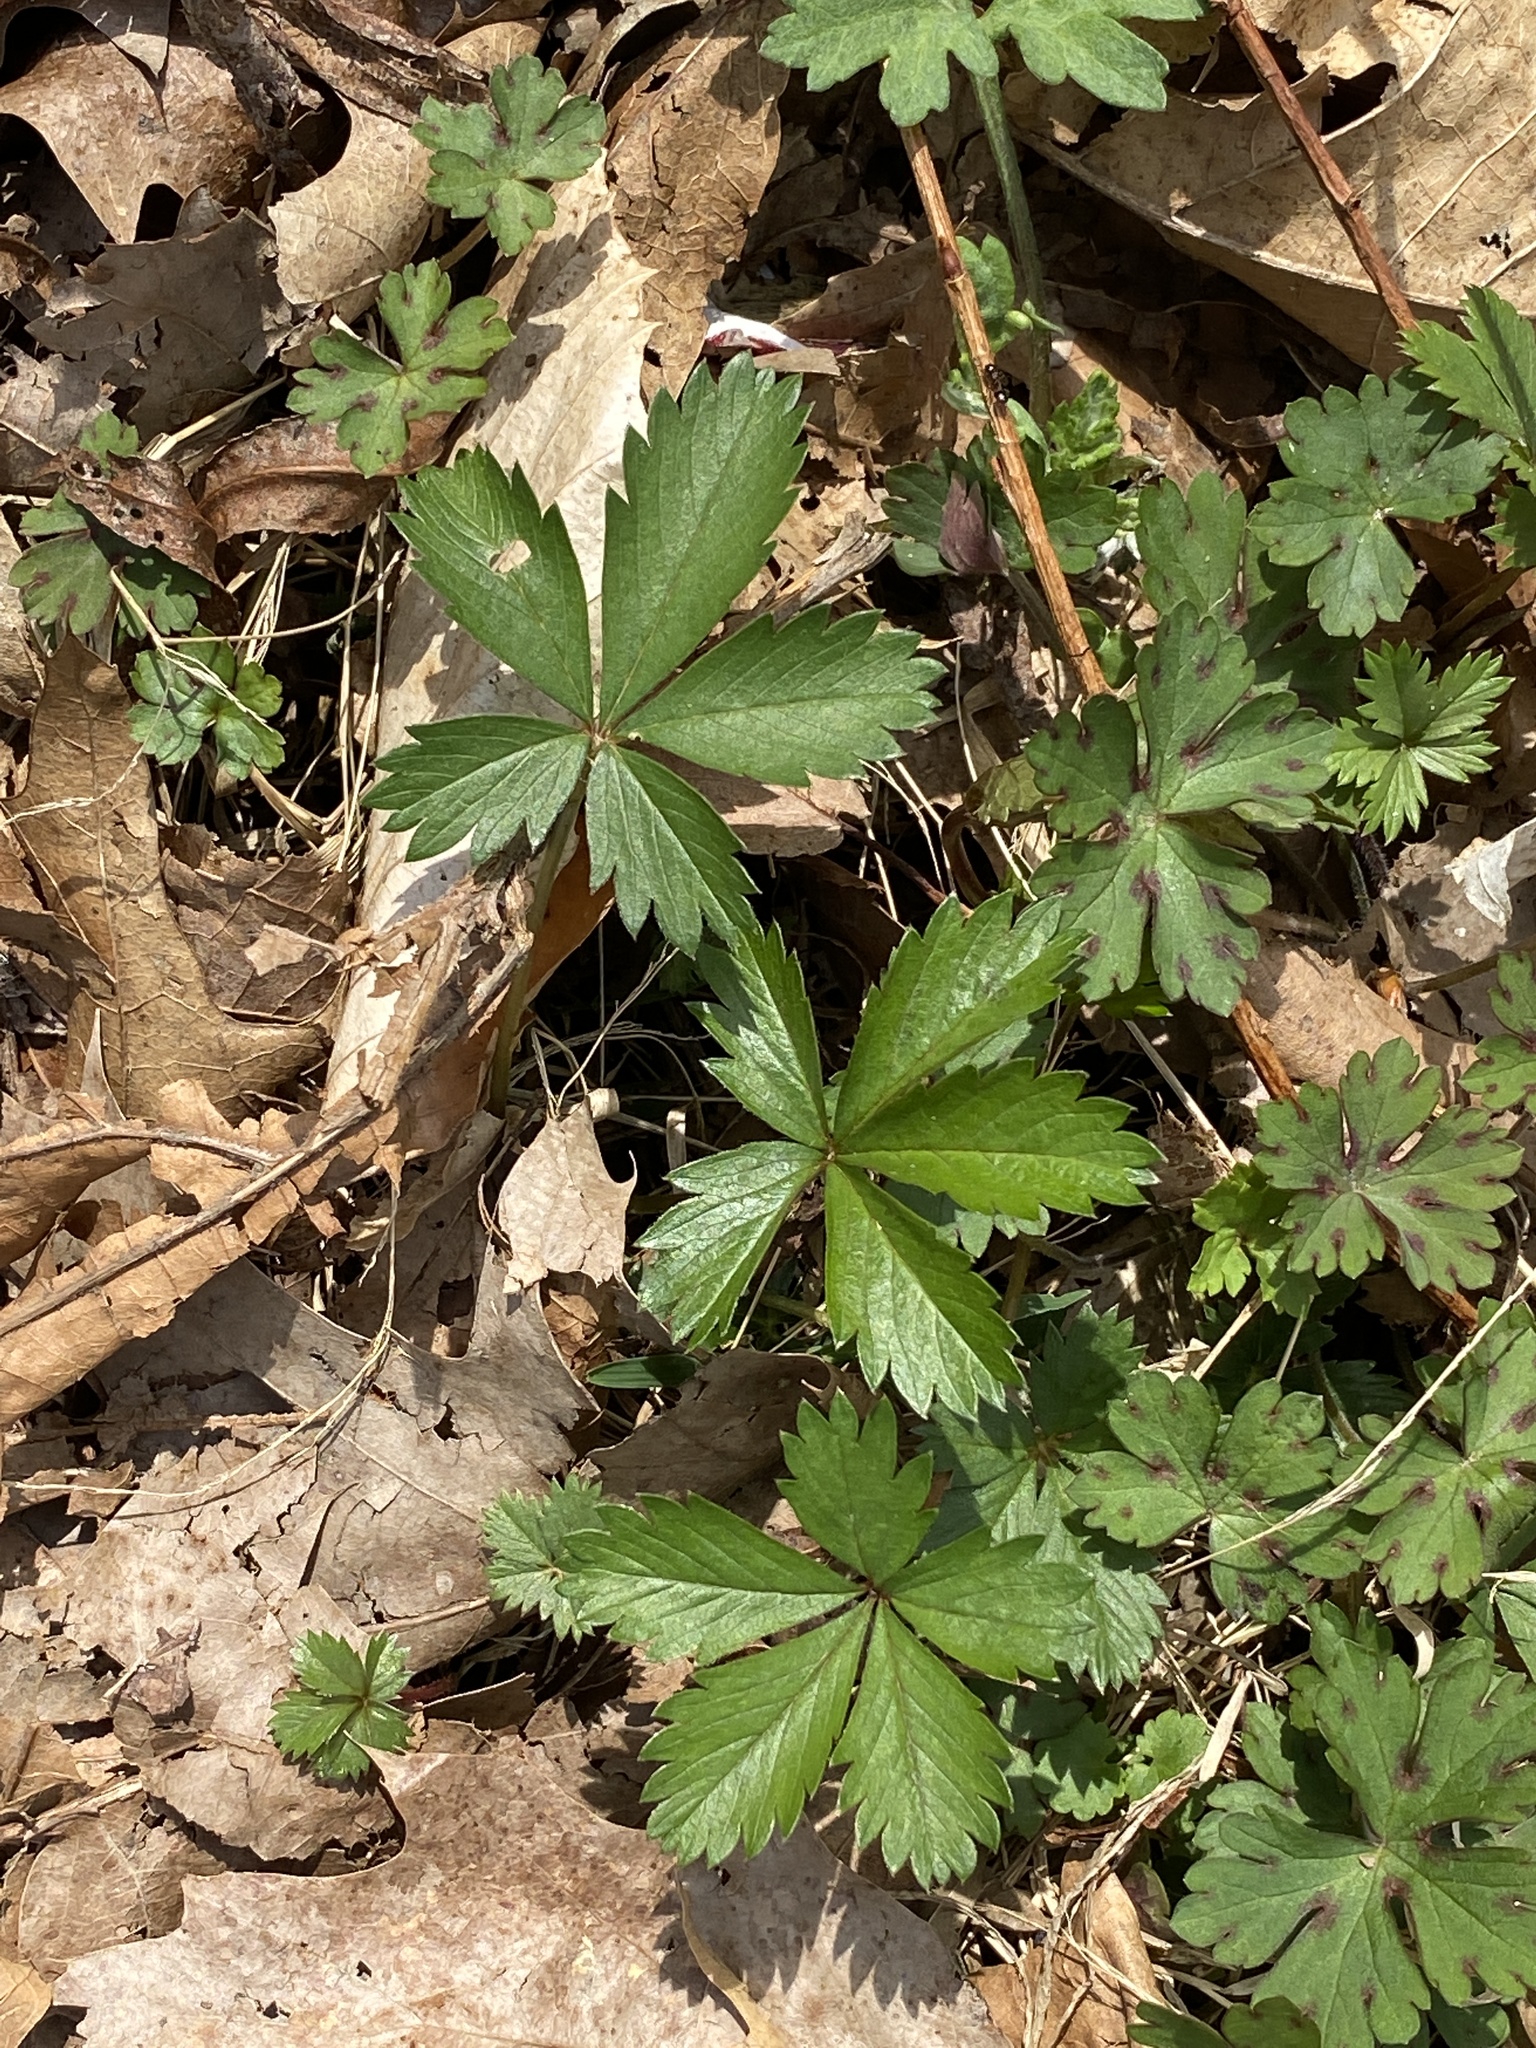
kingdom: Plantae
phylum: Tracheophyta
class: Magnoliopsida
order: Rosales
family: Rosaceae
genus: Potentilla
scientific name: Potentilla canadensis
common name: Canada cinquefoil
